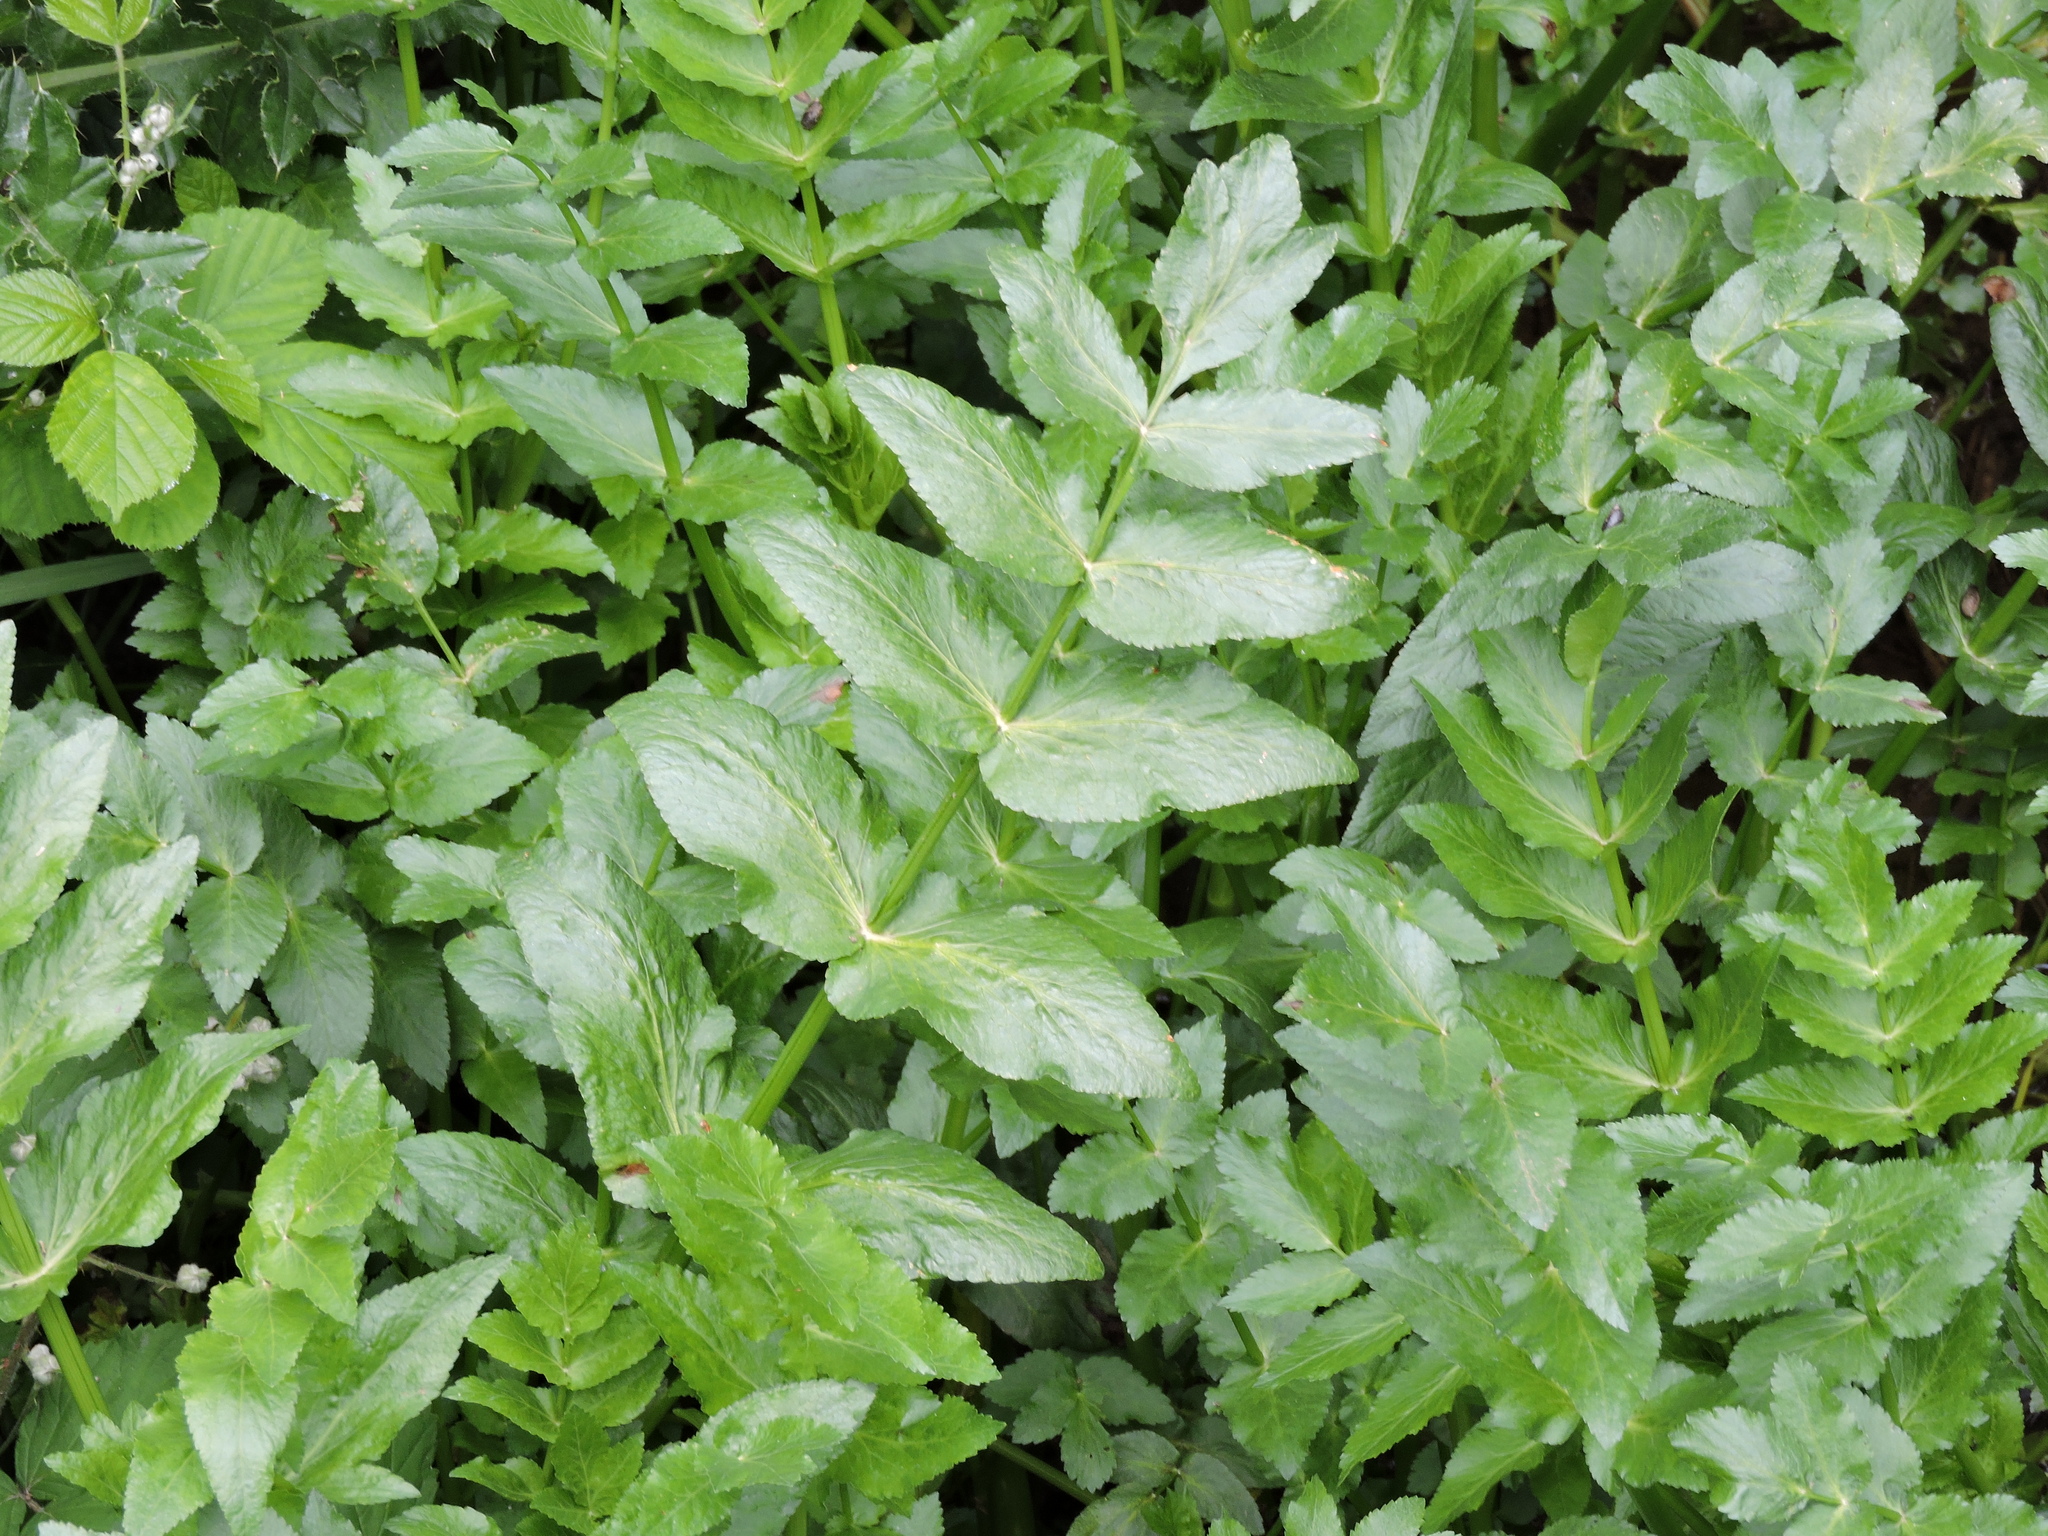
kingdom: Plantae
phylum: Tracheophyta
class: Magnoliopsida
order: Apiales
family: Apiaceae
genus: Helosciadium
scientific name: Helosciadium nodiflorum
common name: Fool's-watercress
